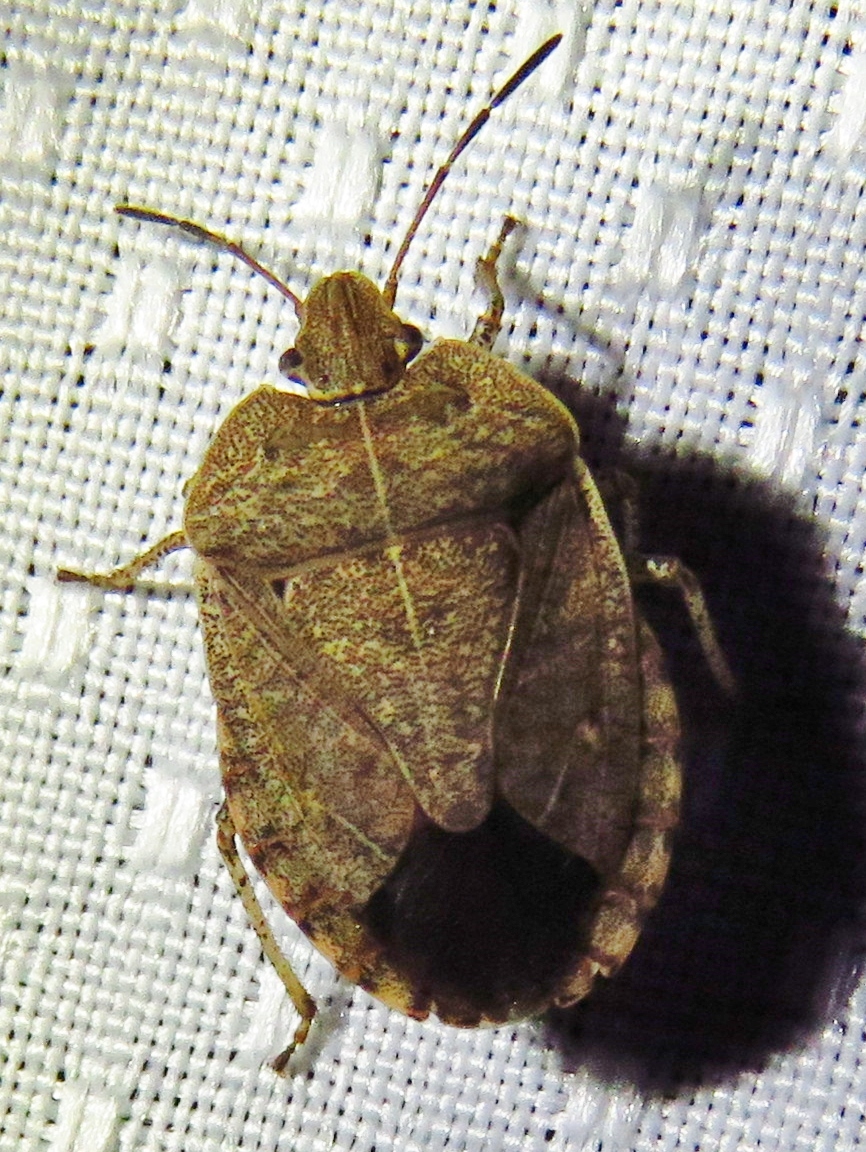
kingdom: Animalia
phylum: Arthropoda
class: Insecta
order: Hemiptera
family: Pentatomidae
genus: Menecles
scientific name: Menecles insertus
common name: Elf shoe stink bug
